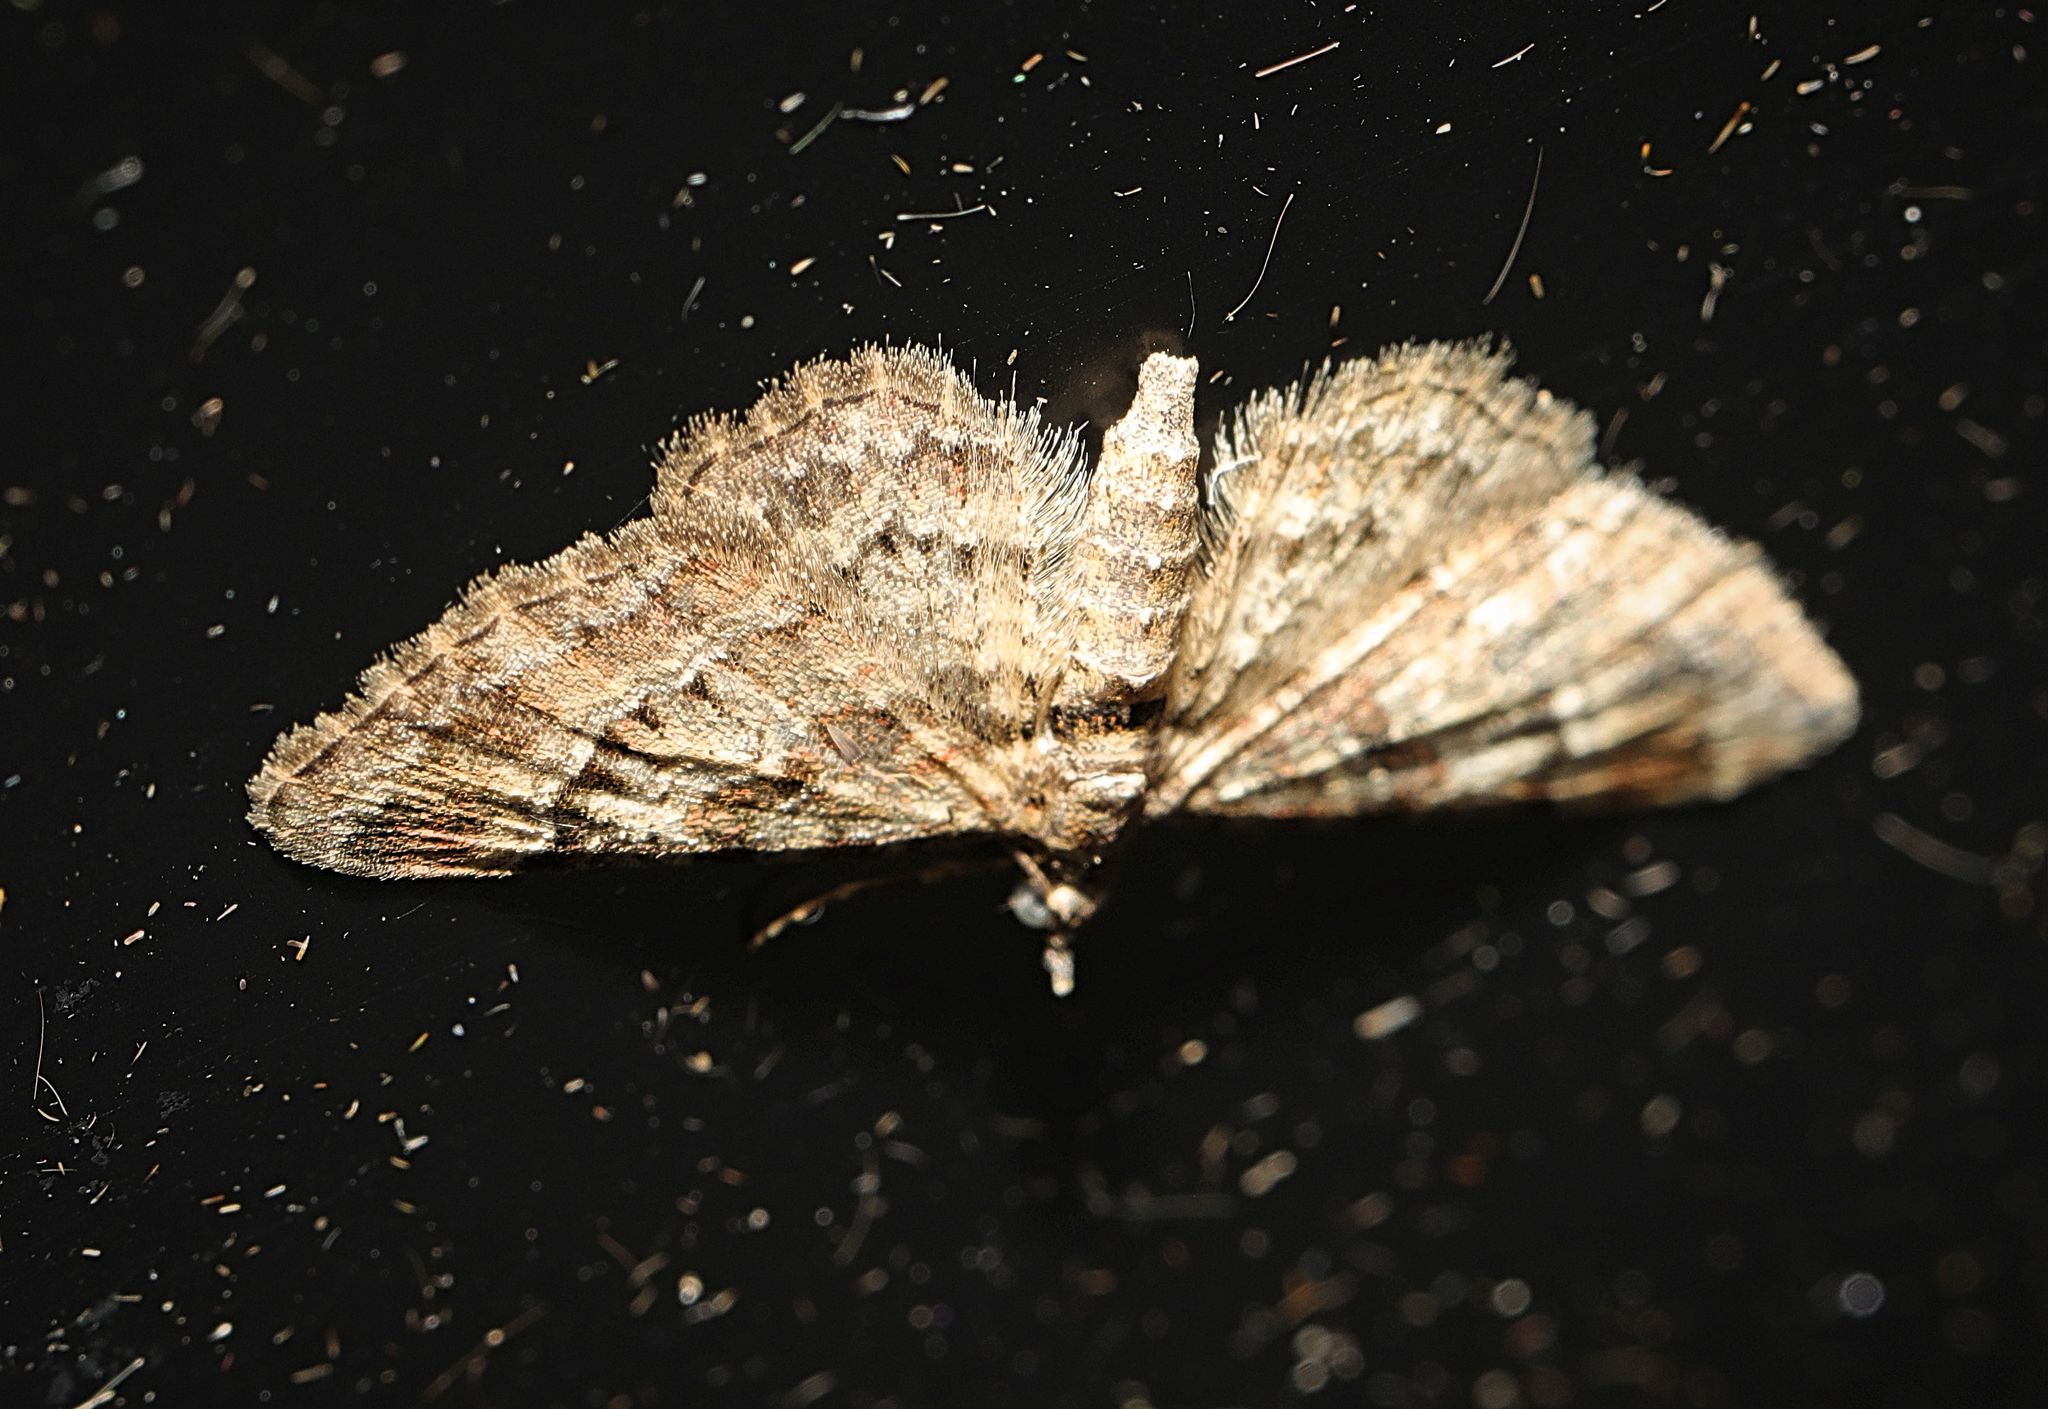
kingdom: Animalia
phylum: Arthropoda
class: Insecta
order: Lepidoptera
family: Geometridae
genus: Gymnoscelis
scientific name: Gymnoscelis rufifasciata
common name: Double-striped pug
